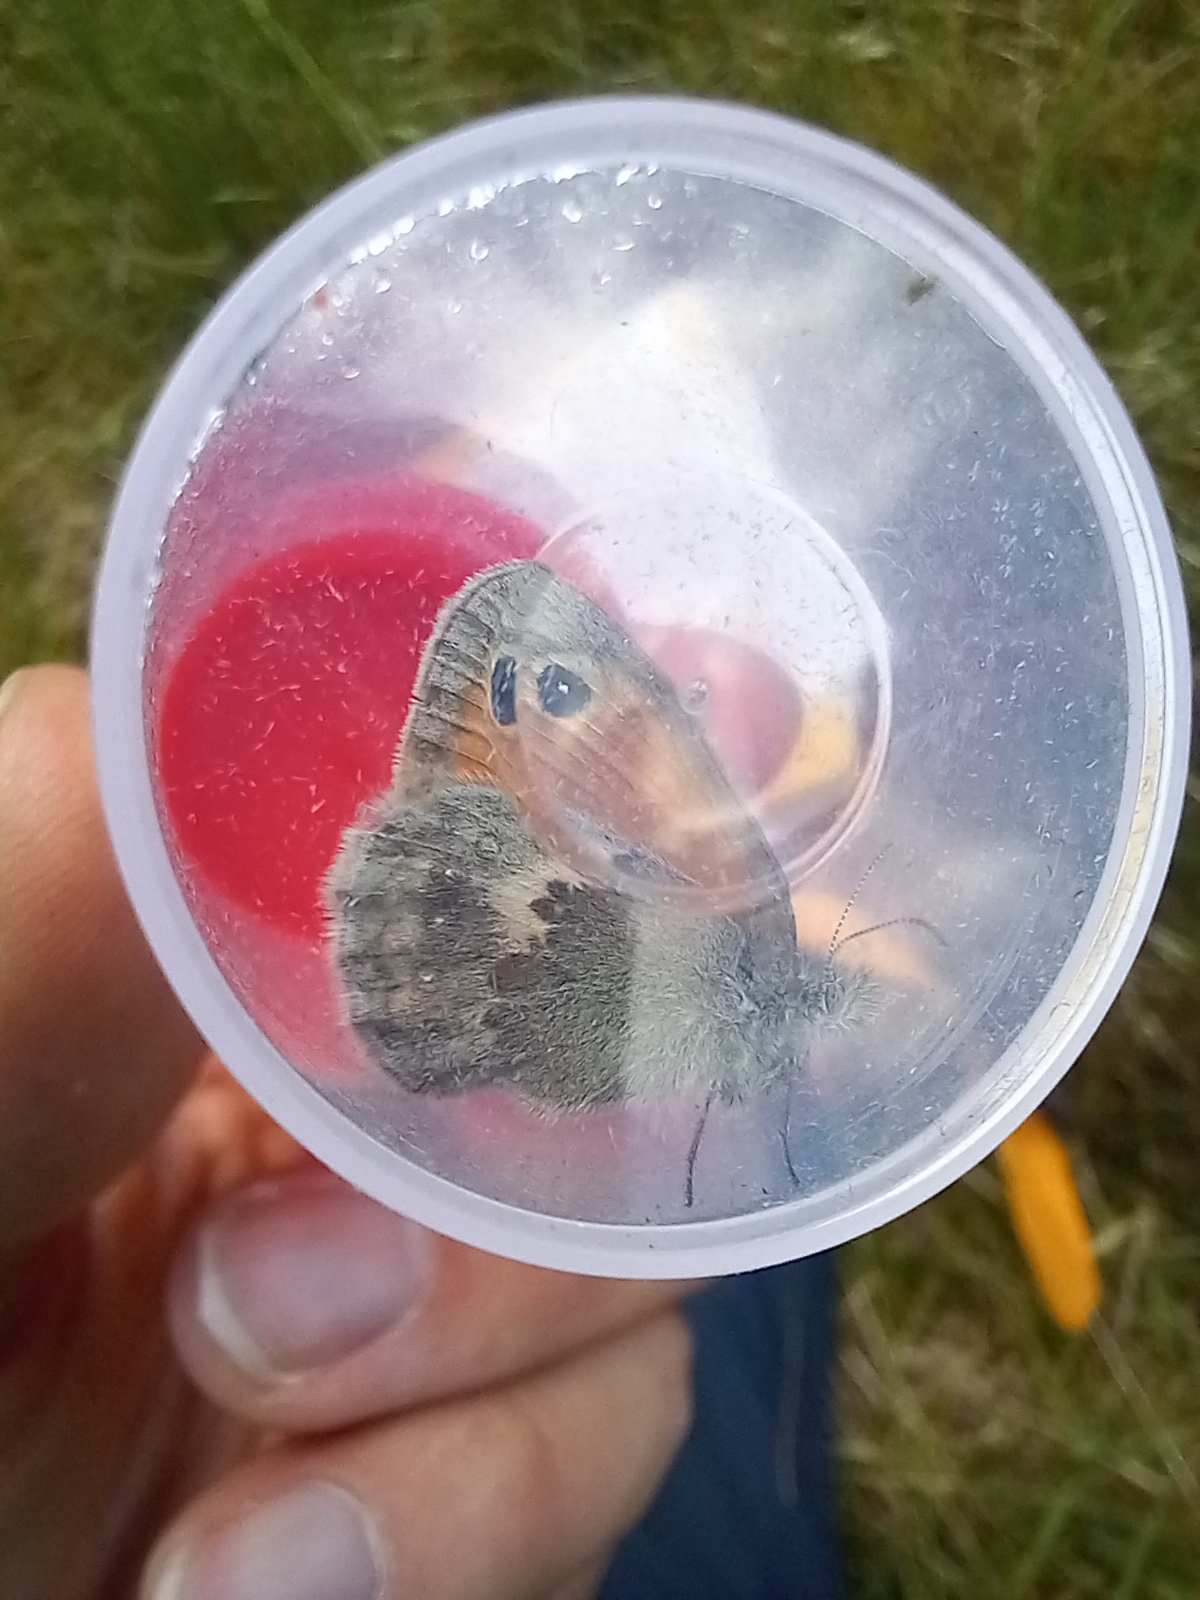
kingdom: Animalia
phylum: Arthropoda
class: Insecta
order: Lepidoptera
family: Nymphalidae
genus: Coenonympha
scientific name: Coenonympha pamphilus
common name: Small heath
